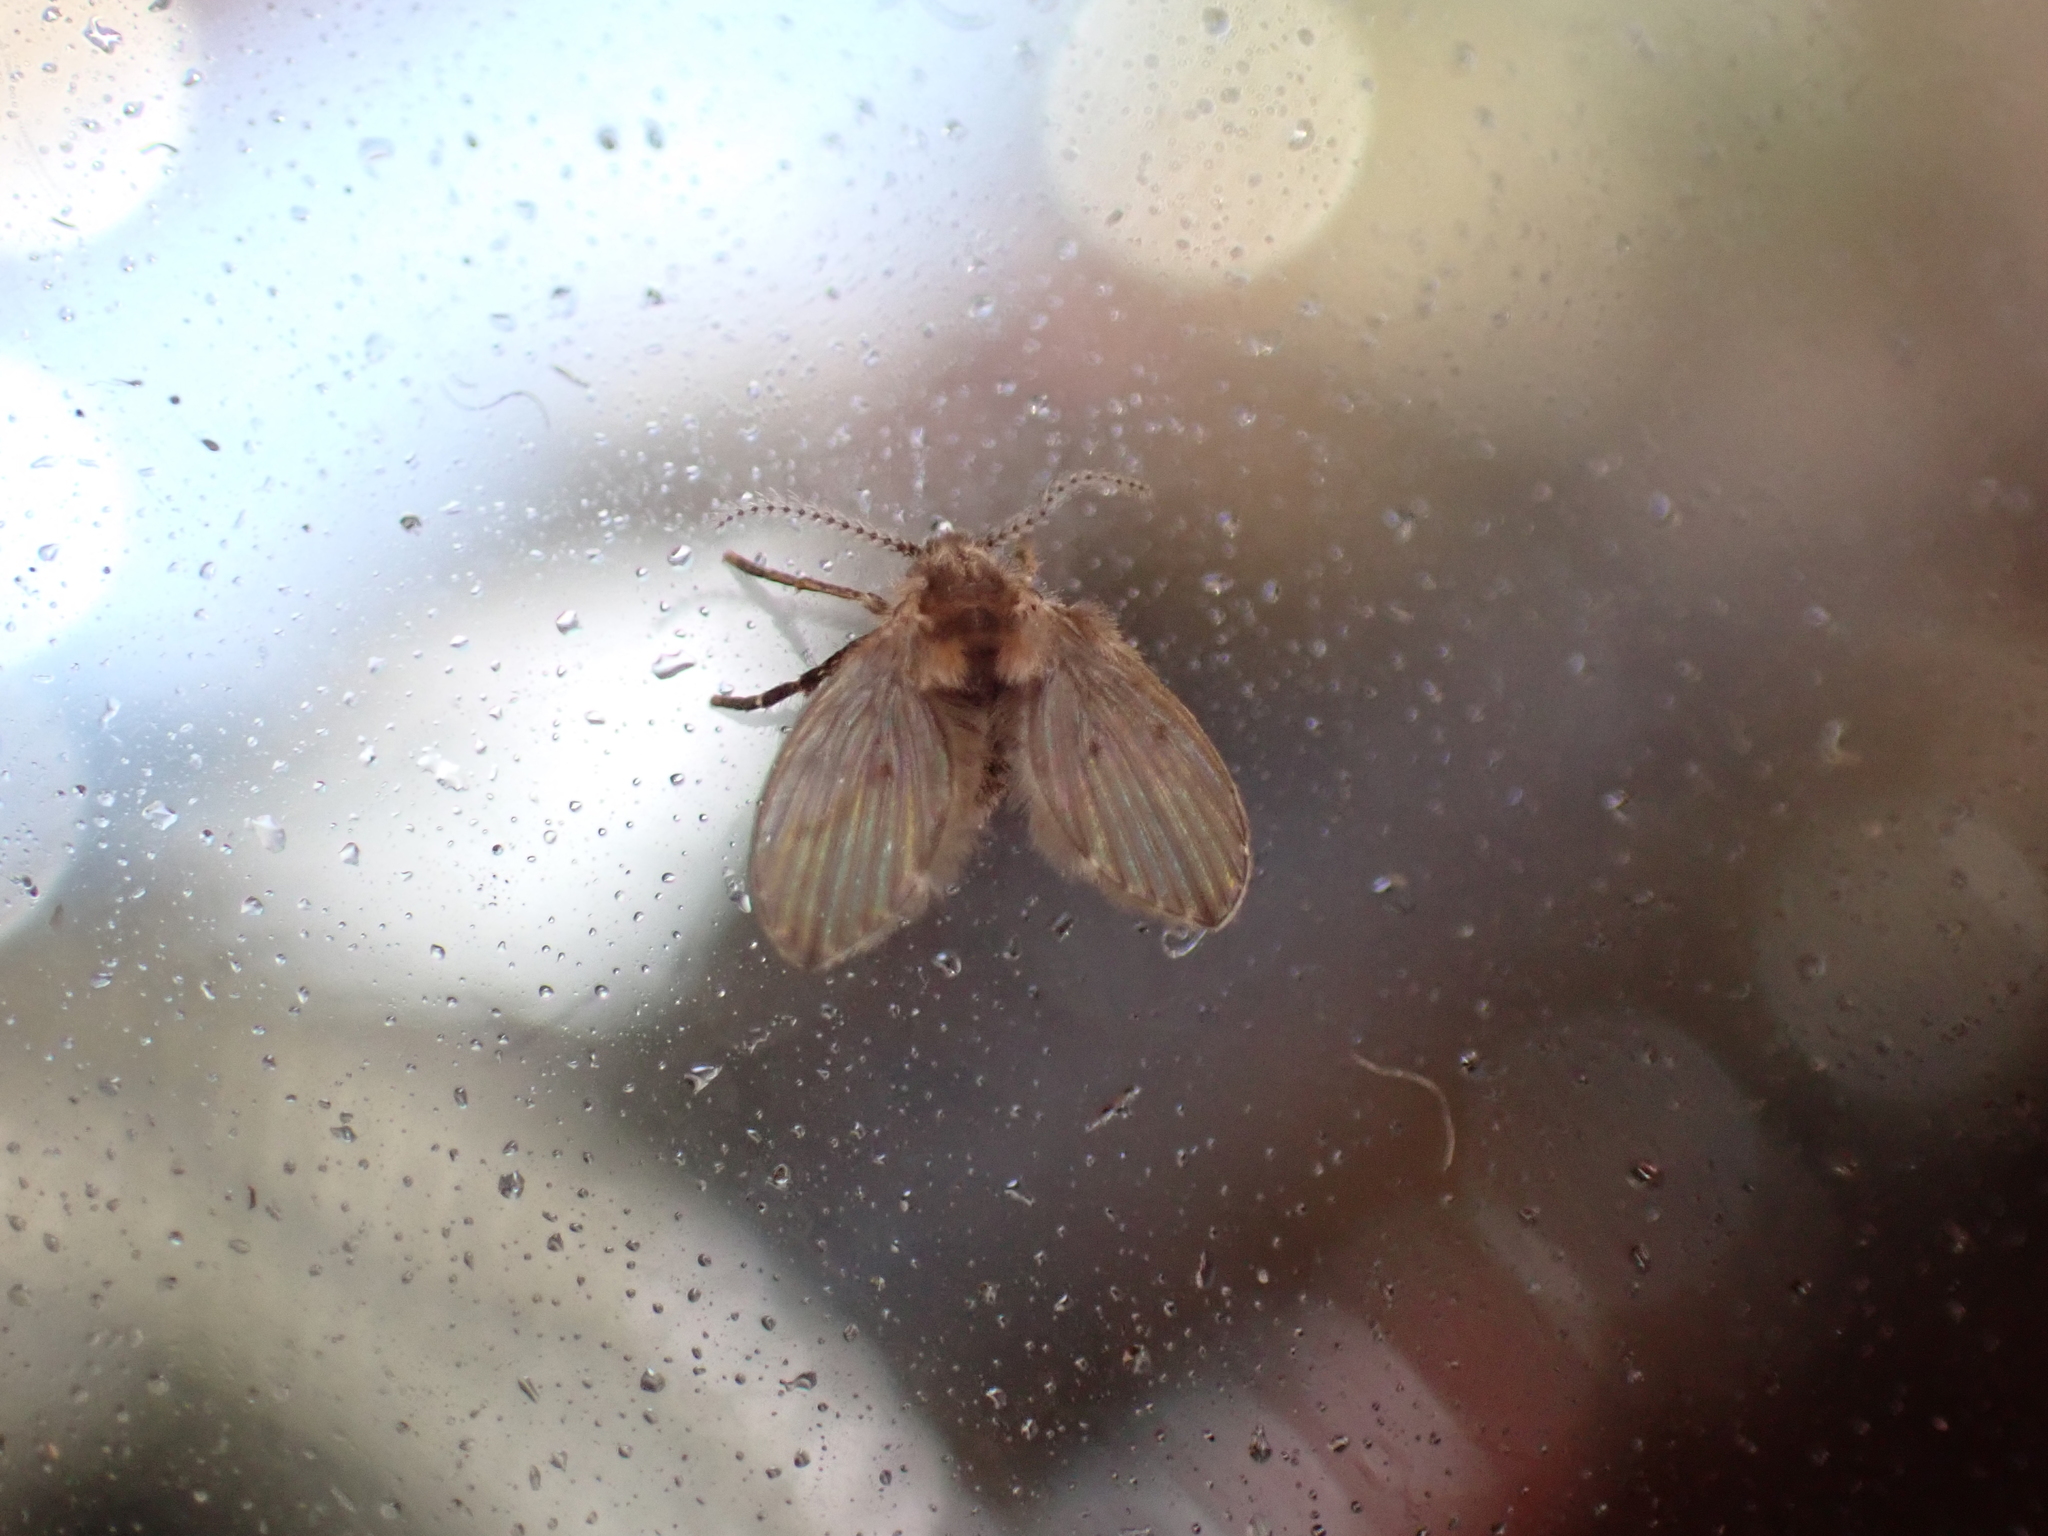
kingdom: Animalia
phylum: Arthropoda
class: Insecta
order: Diptera
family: Psychodidae
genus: Clogmia
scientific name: Clogmia albipunctatus
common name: White-spotted moth fly
